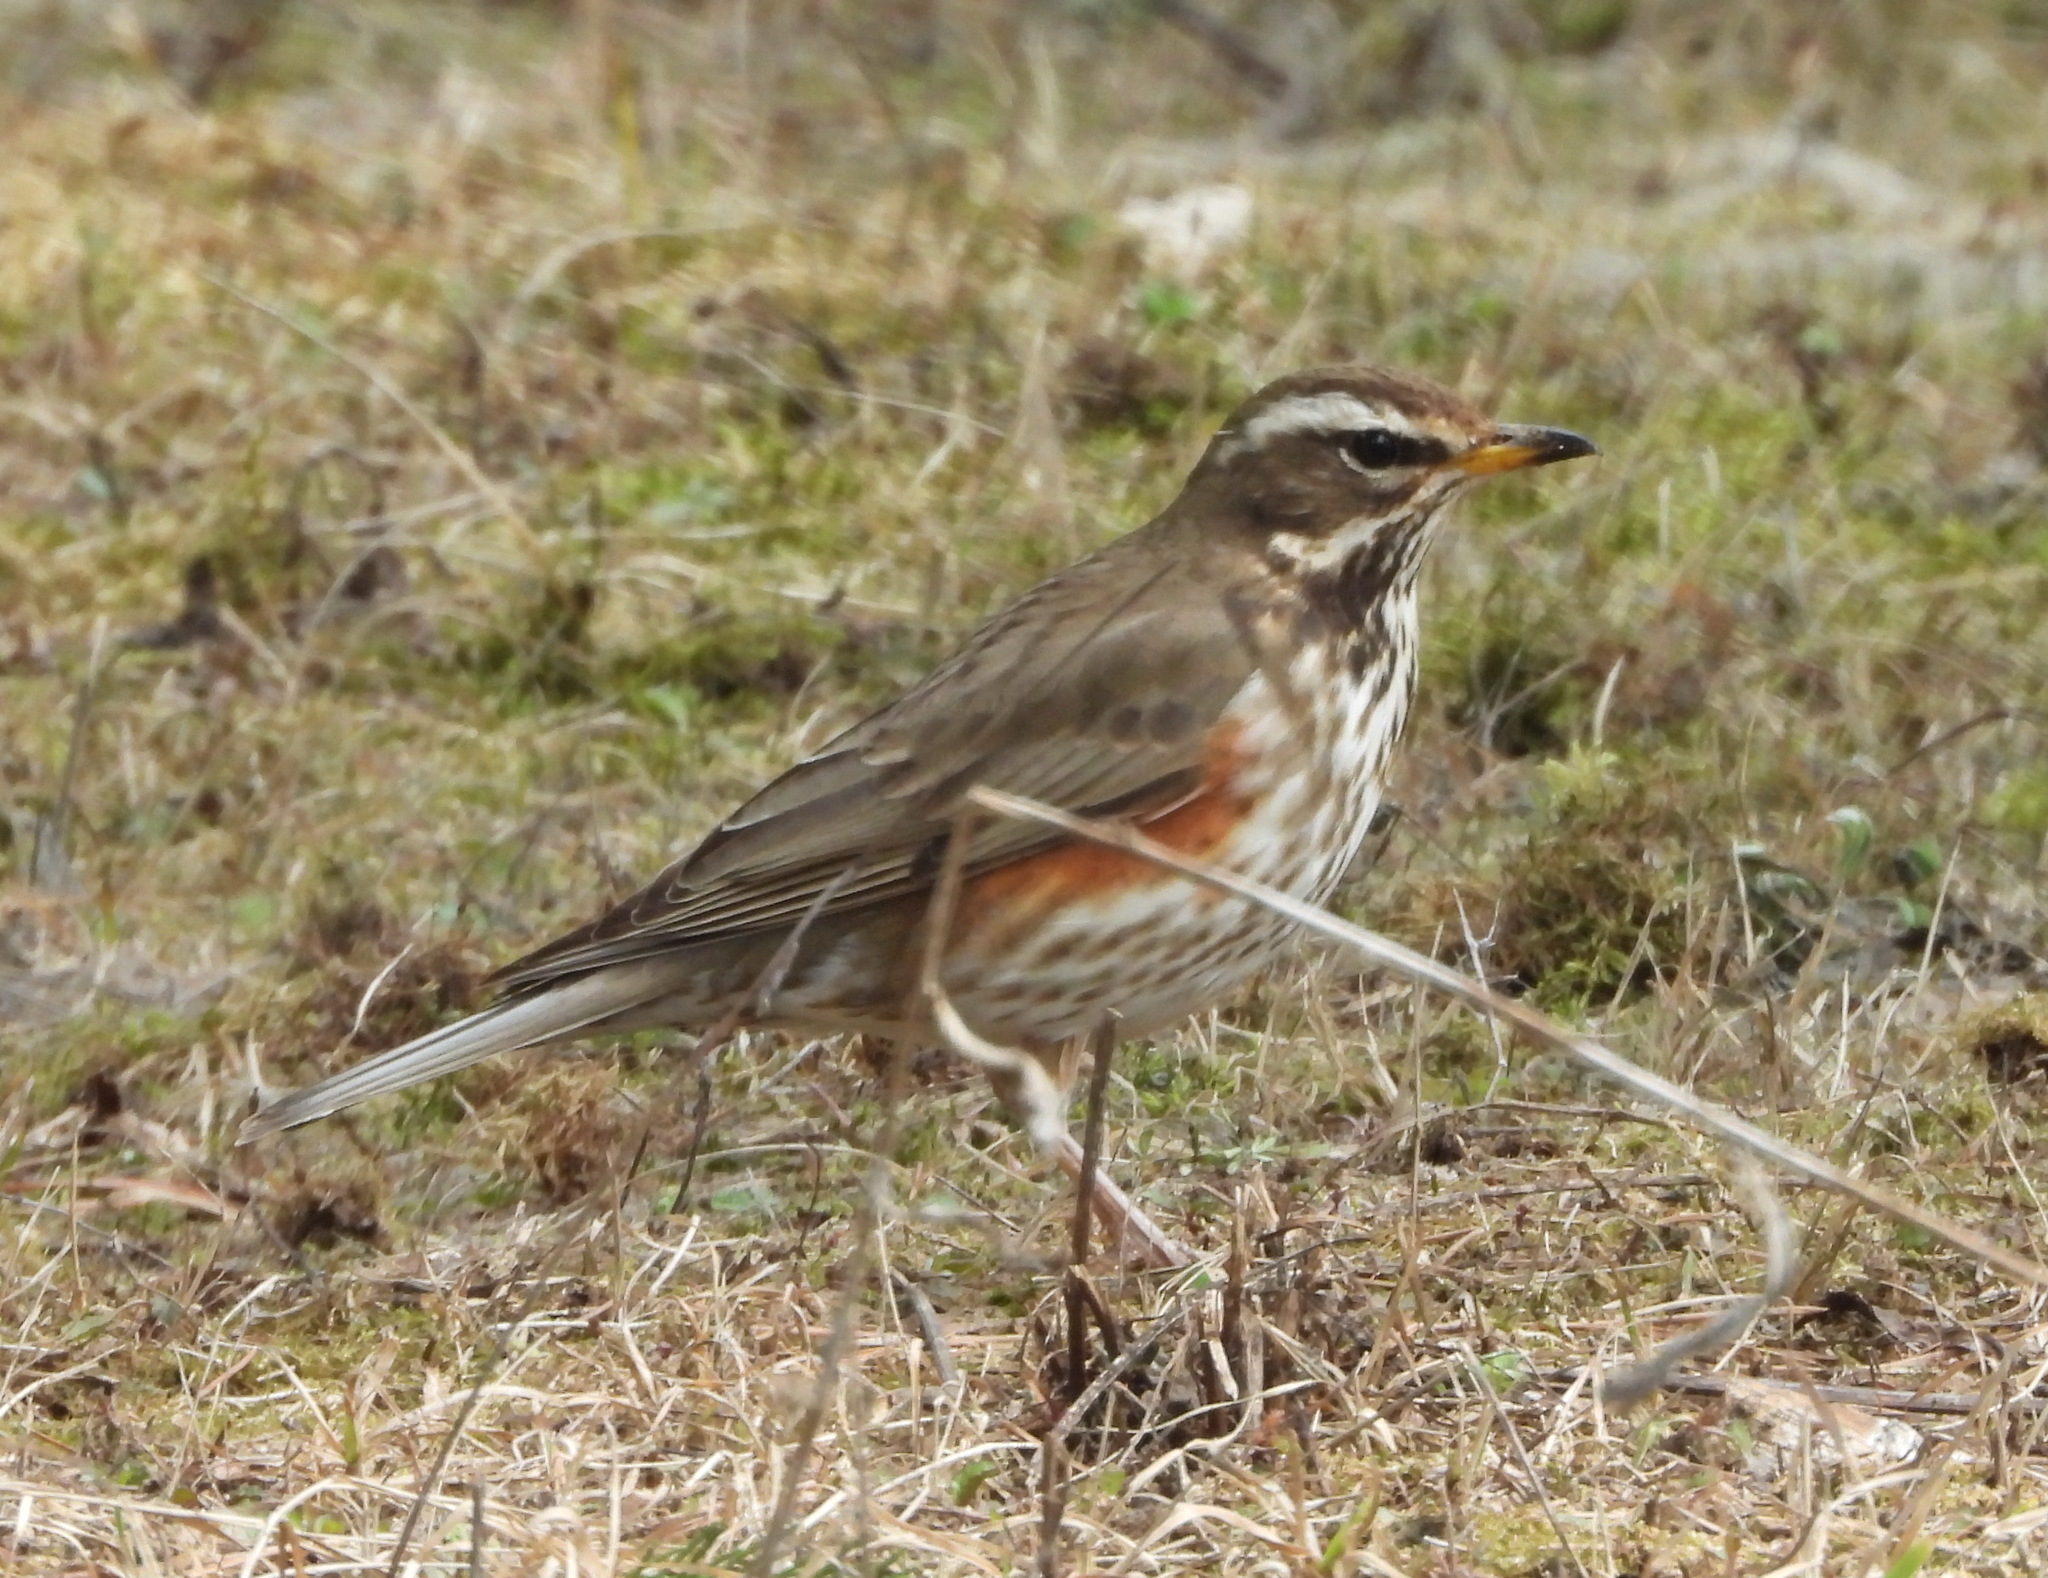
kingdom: Animalia
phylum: Chordata
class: Aves
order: Passeriformes
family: Turdidae
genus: Turdus
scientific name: Turdus iliacus
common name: Redwing
